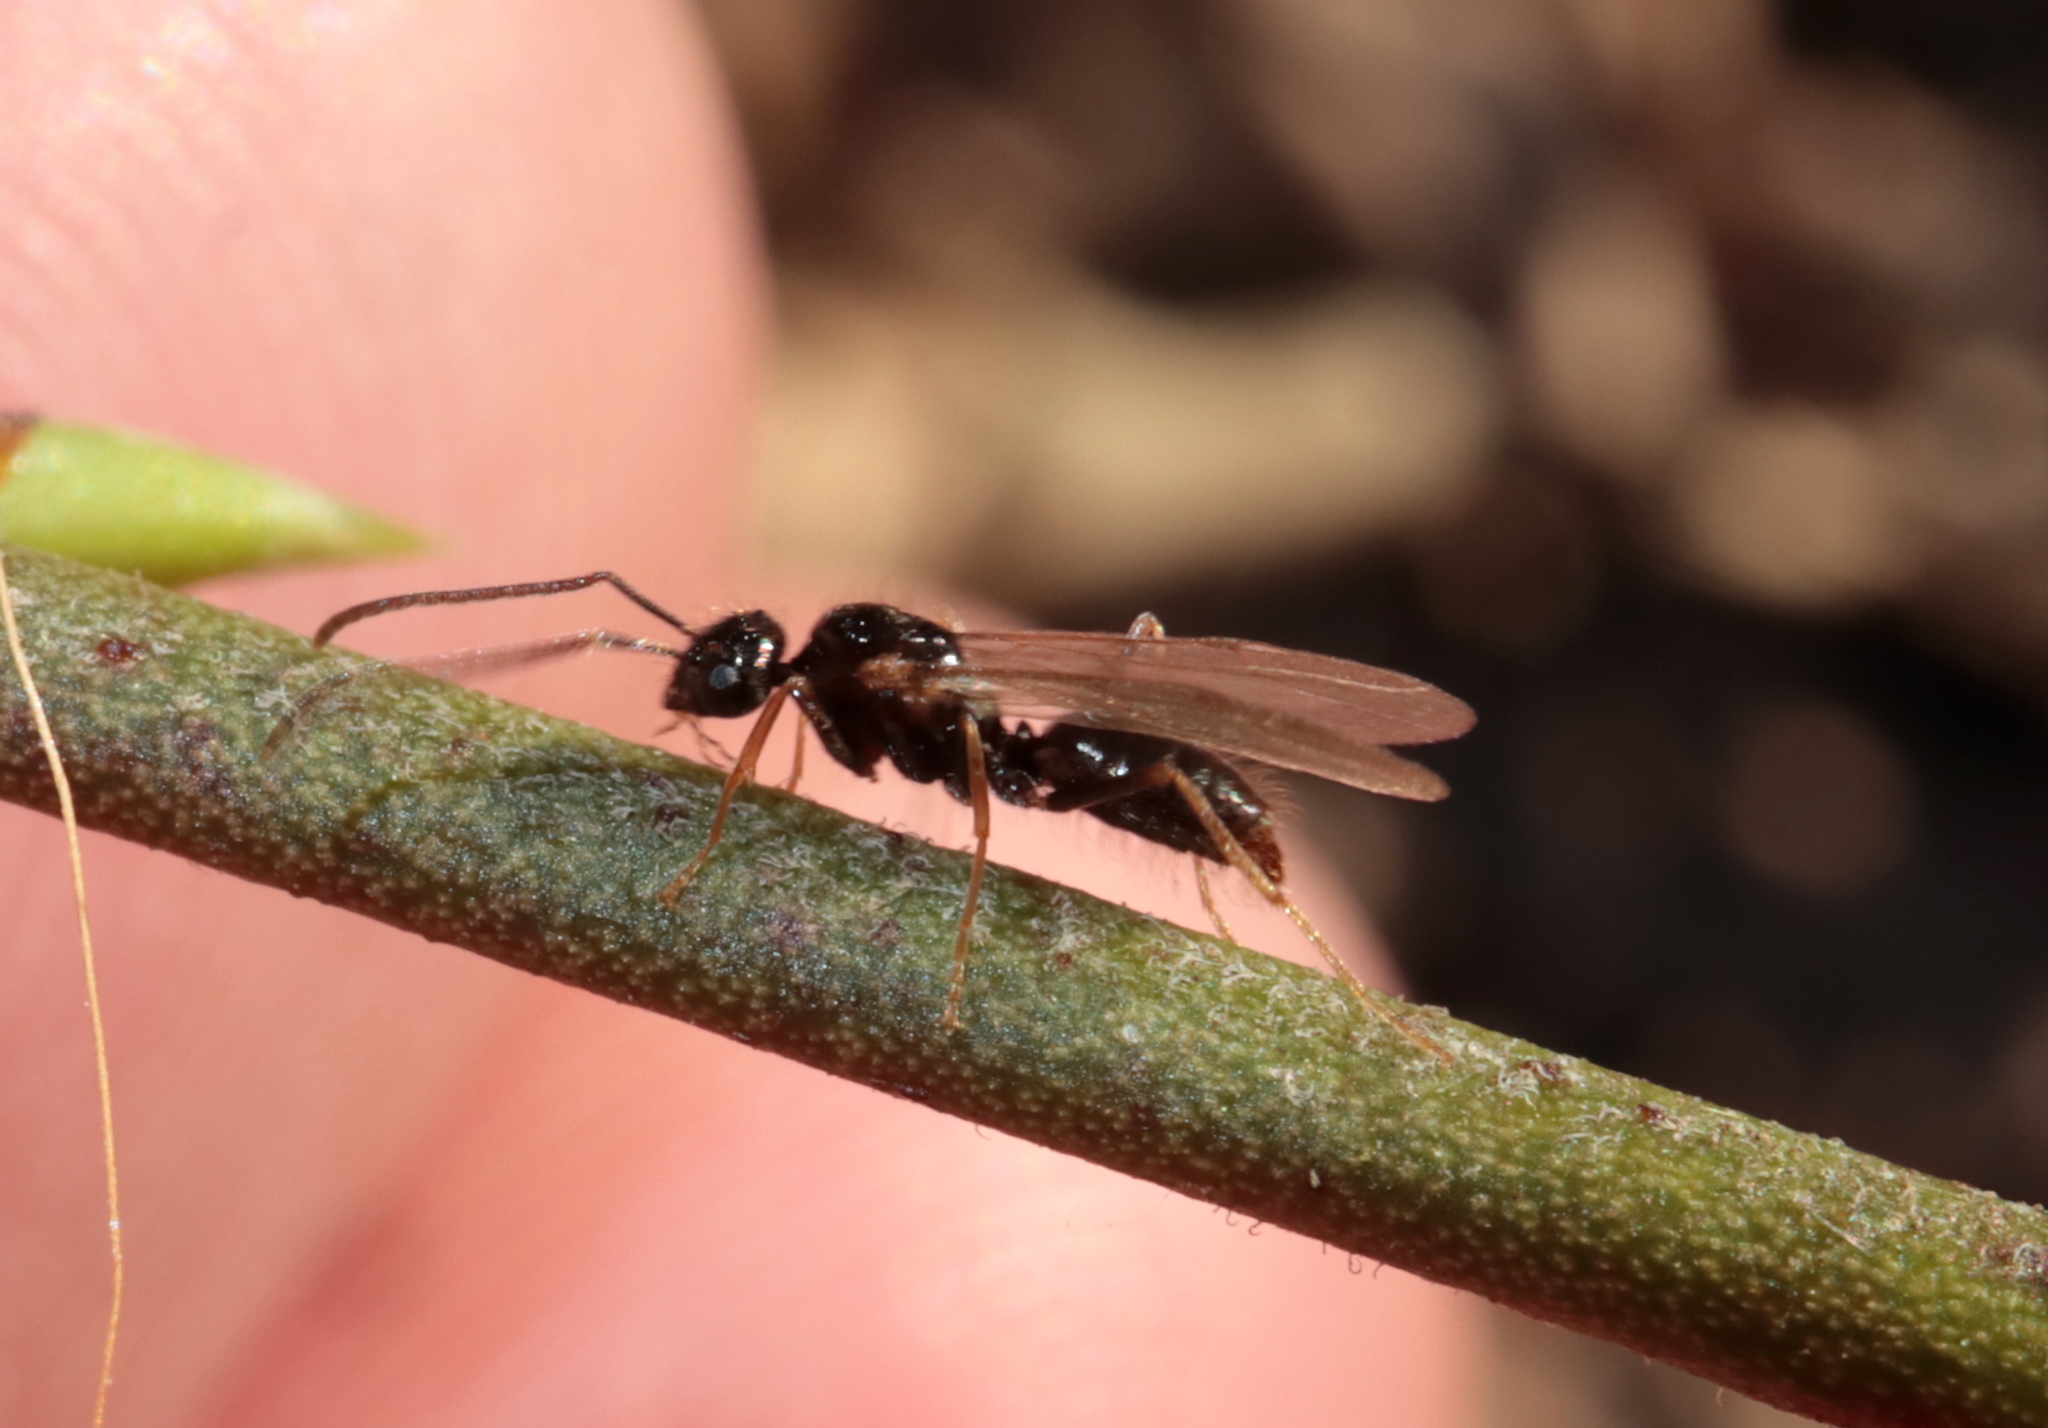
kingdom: Animalia
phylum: Arthropoda
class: Insecta
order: Hymenoptera
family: Formicidae
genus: Prenolepis
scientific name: Prenolepis imparis
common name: Small honey ant
